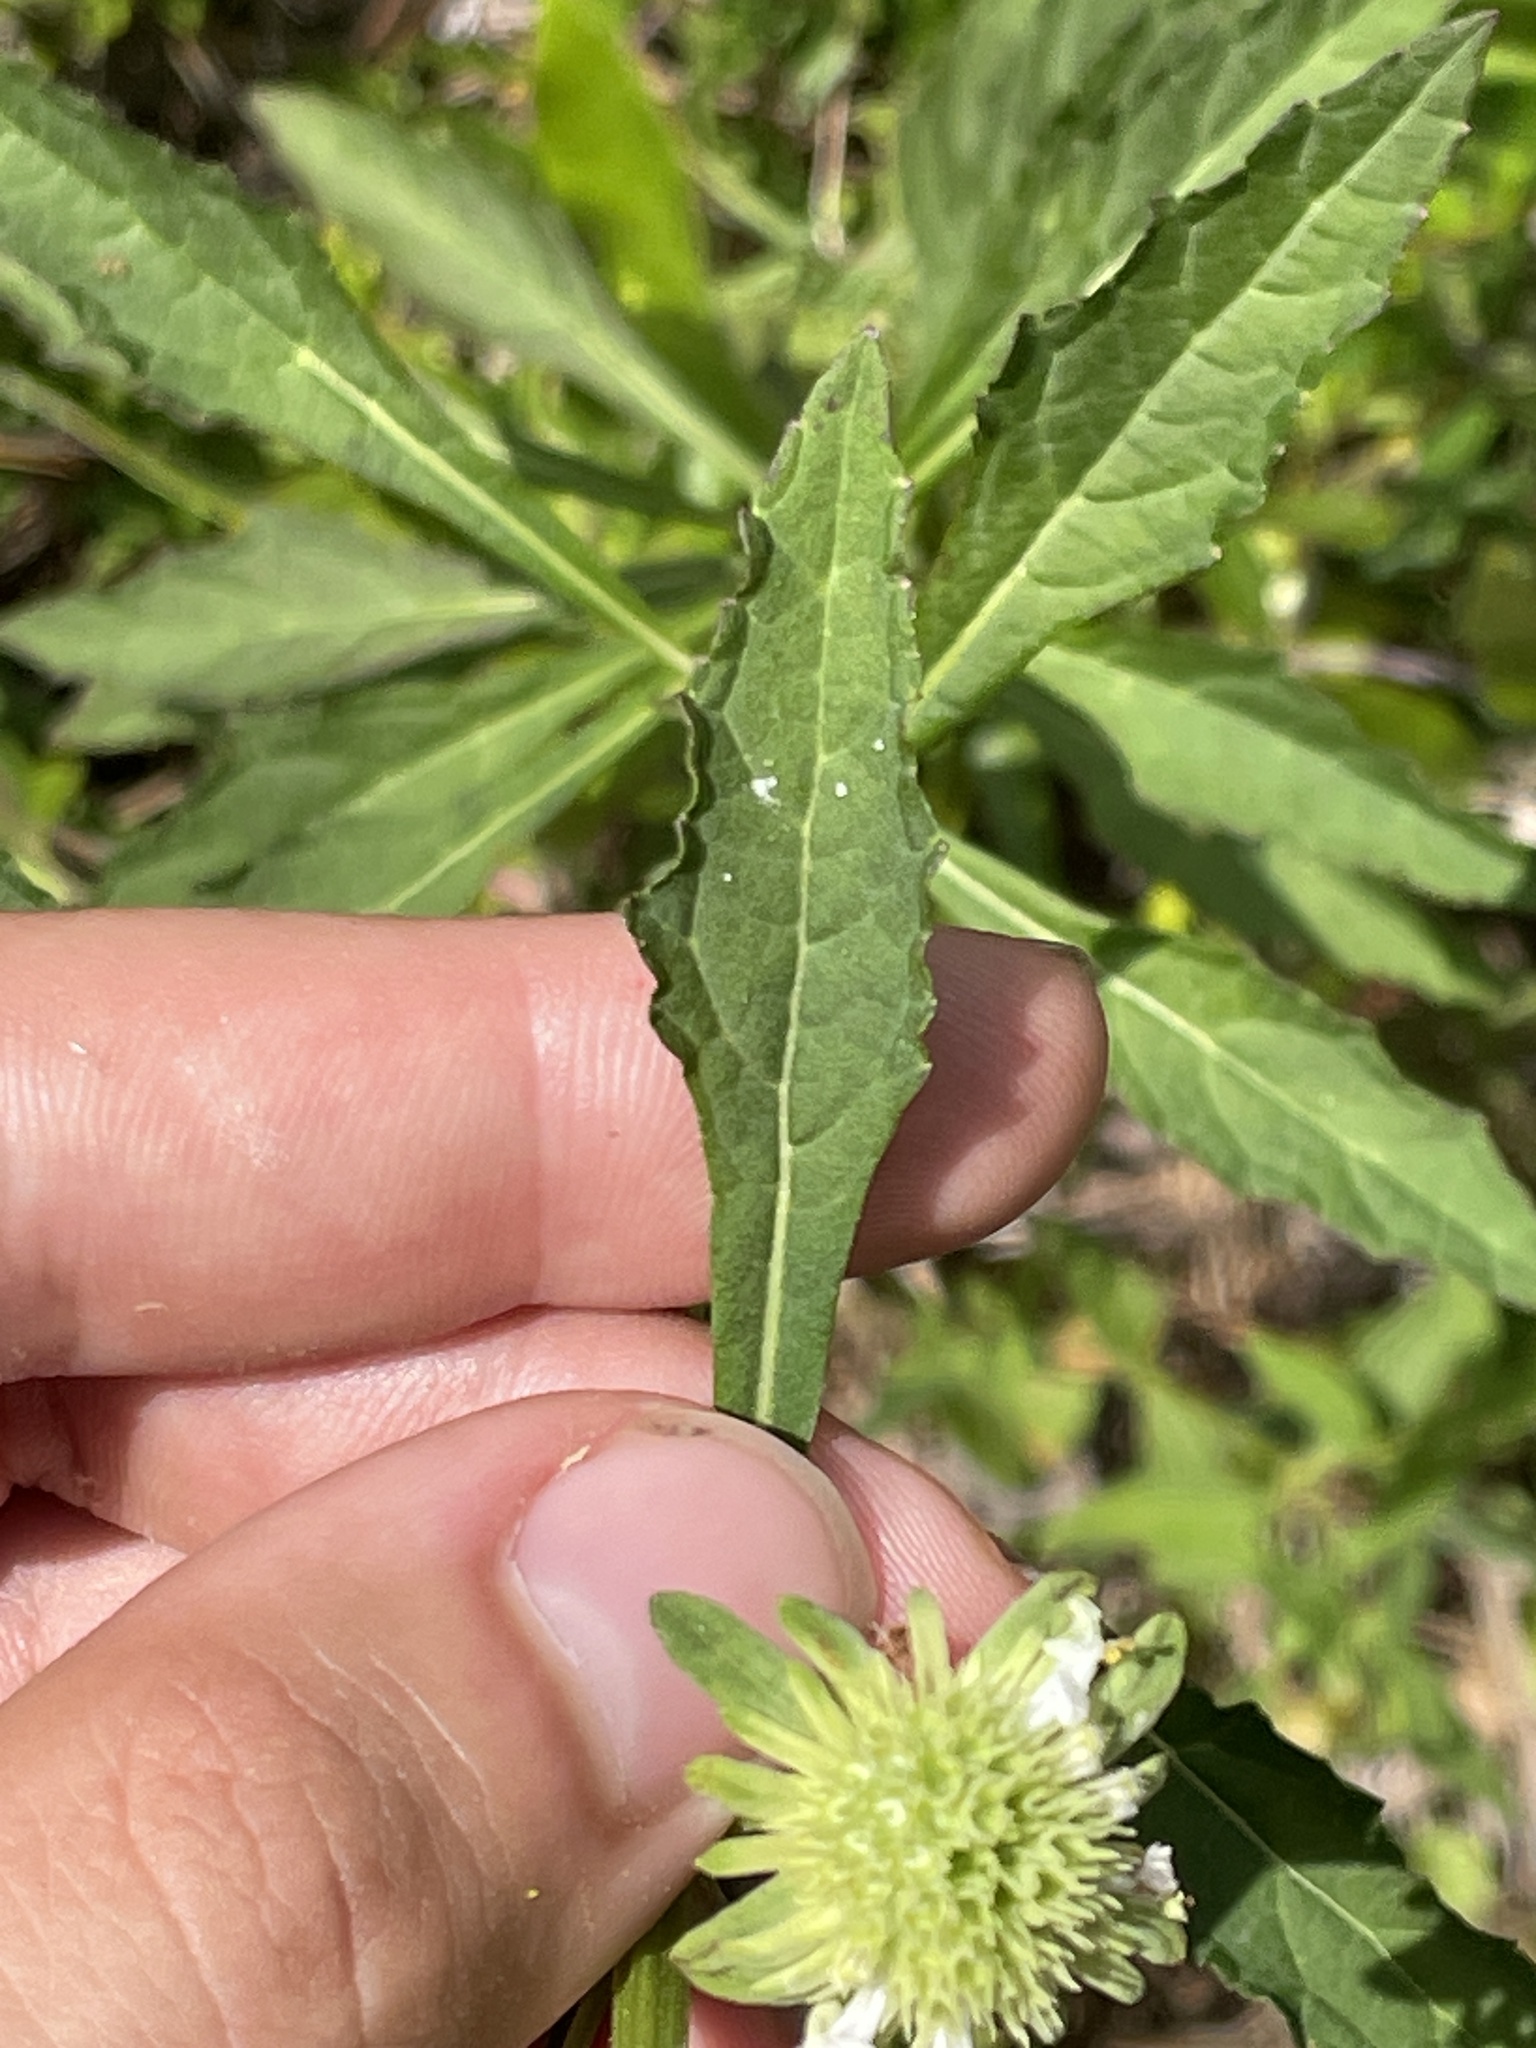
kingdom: Plantae
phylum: Tracheophyta
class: Magnoliopsida
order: Lamiales
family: Lamiaceae
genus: Hyptis
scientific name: Hyptis alata
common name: Cluster bush-mint
